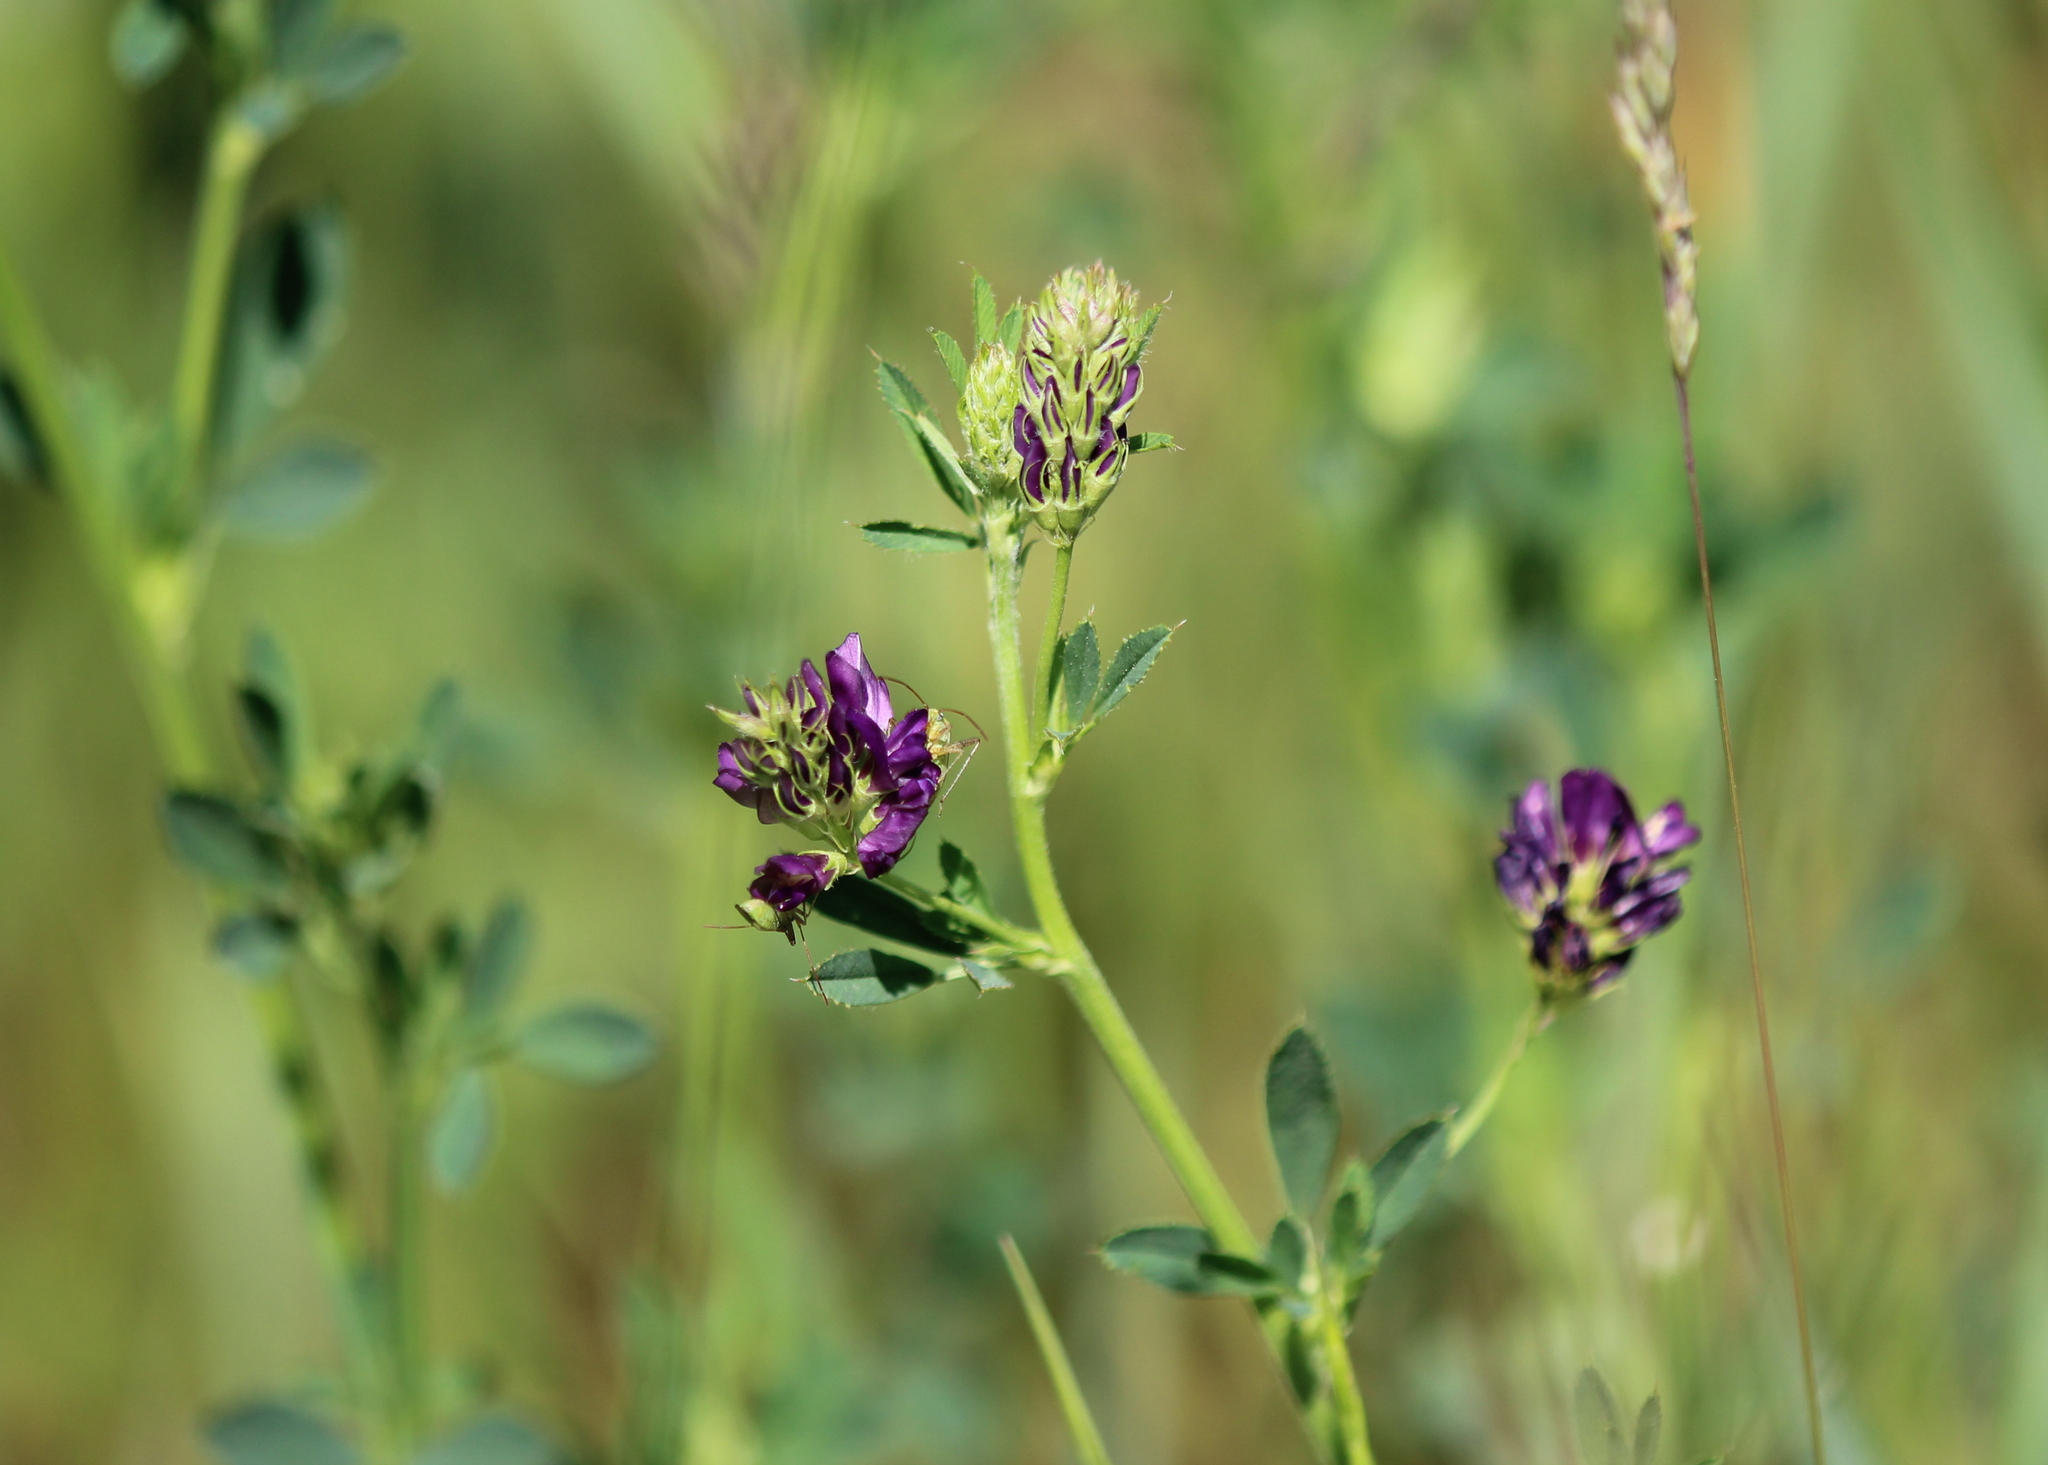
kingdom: Plantae
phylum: Tracheophyta
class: Magnoliopsida
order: Fabales
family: Fabaceae
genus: Medicago
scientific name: Medicago sativa
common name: Alfalfa
